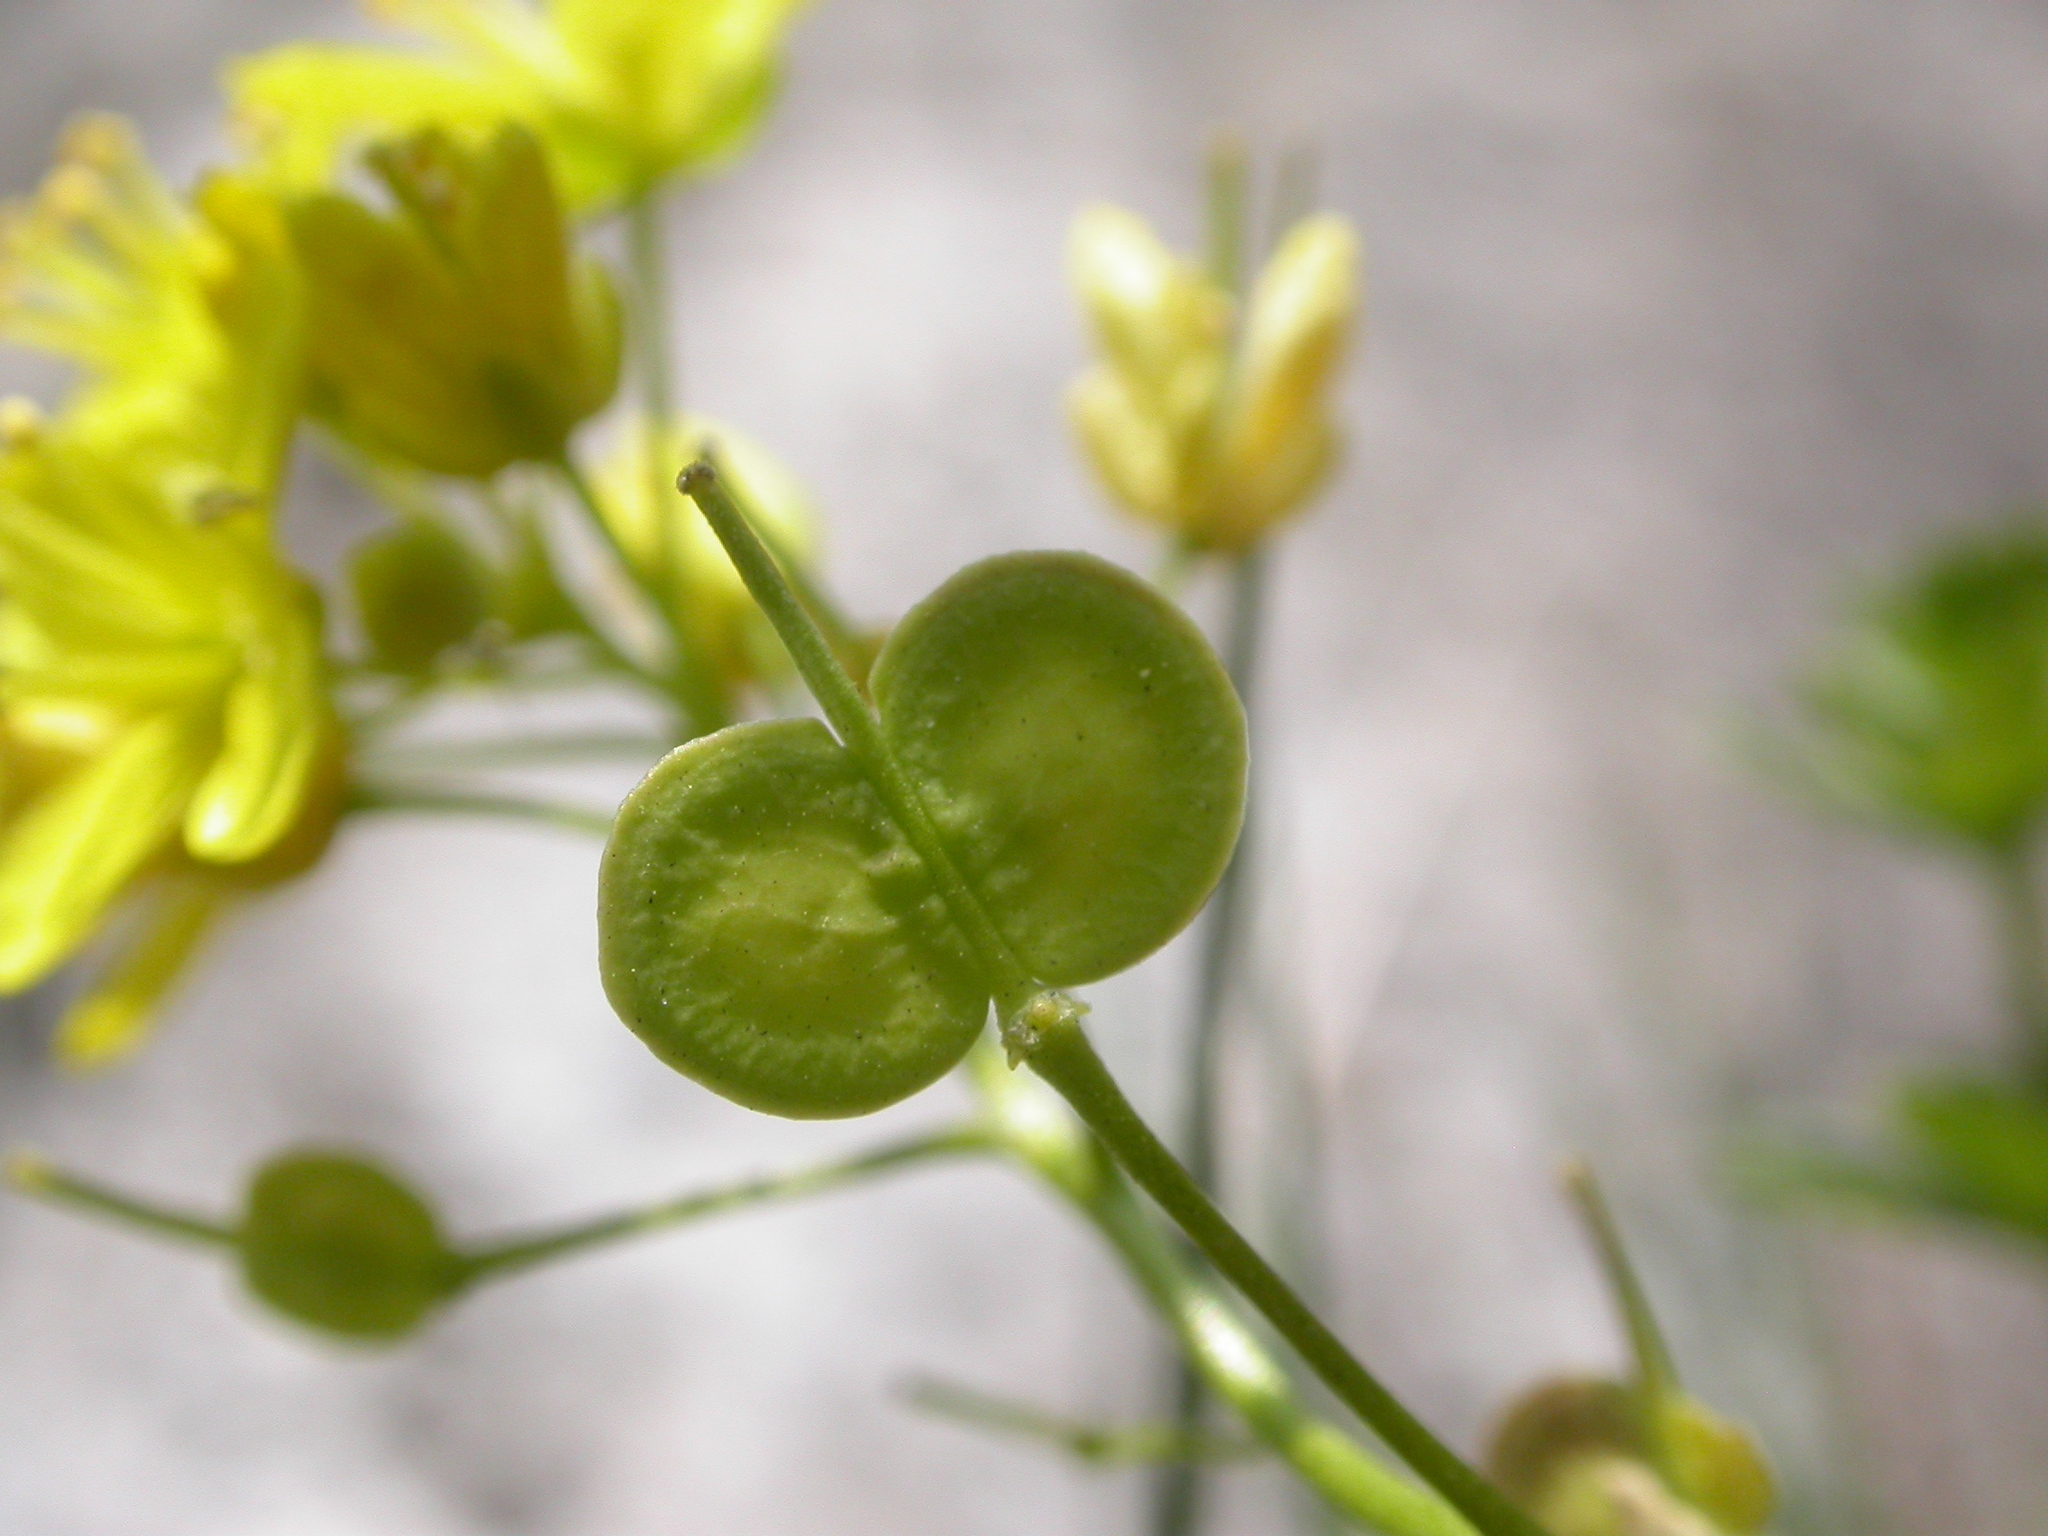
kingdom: Plantae
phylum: Tracheophyta
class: Magnoliopsida
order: Brassicales
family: Brassicaceae
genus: Biscutella
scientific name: Biscutella laevigata
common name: Buckler mustard
